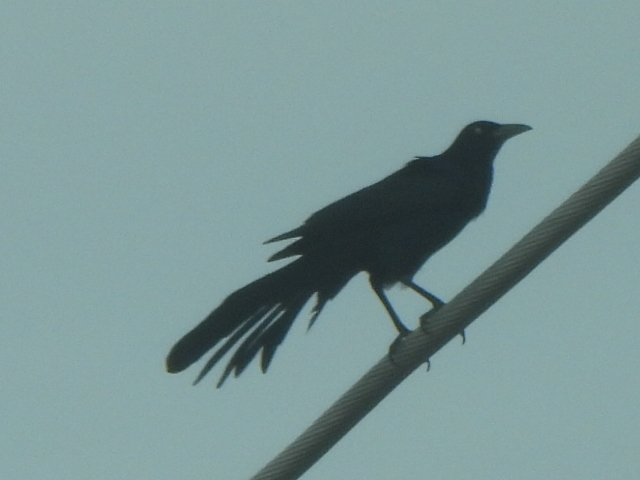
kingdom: Animalia
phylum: Chordata
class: Aves
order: Passeriformes
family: Icteridae
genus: Quiscalus
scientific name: Quiscalus mexicanus
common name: Great-tailed grackle
